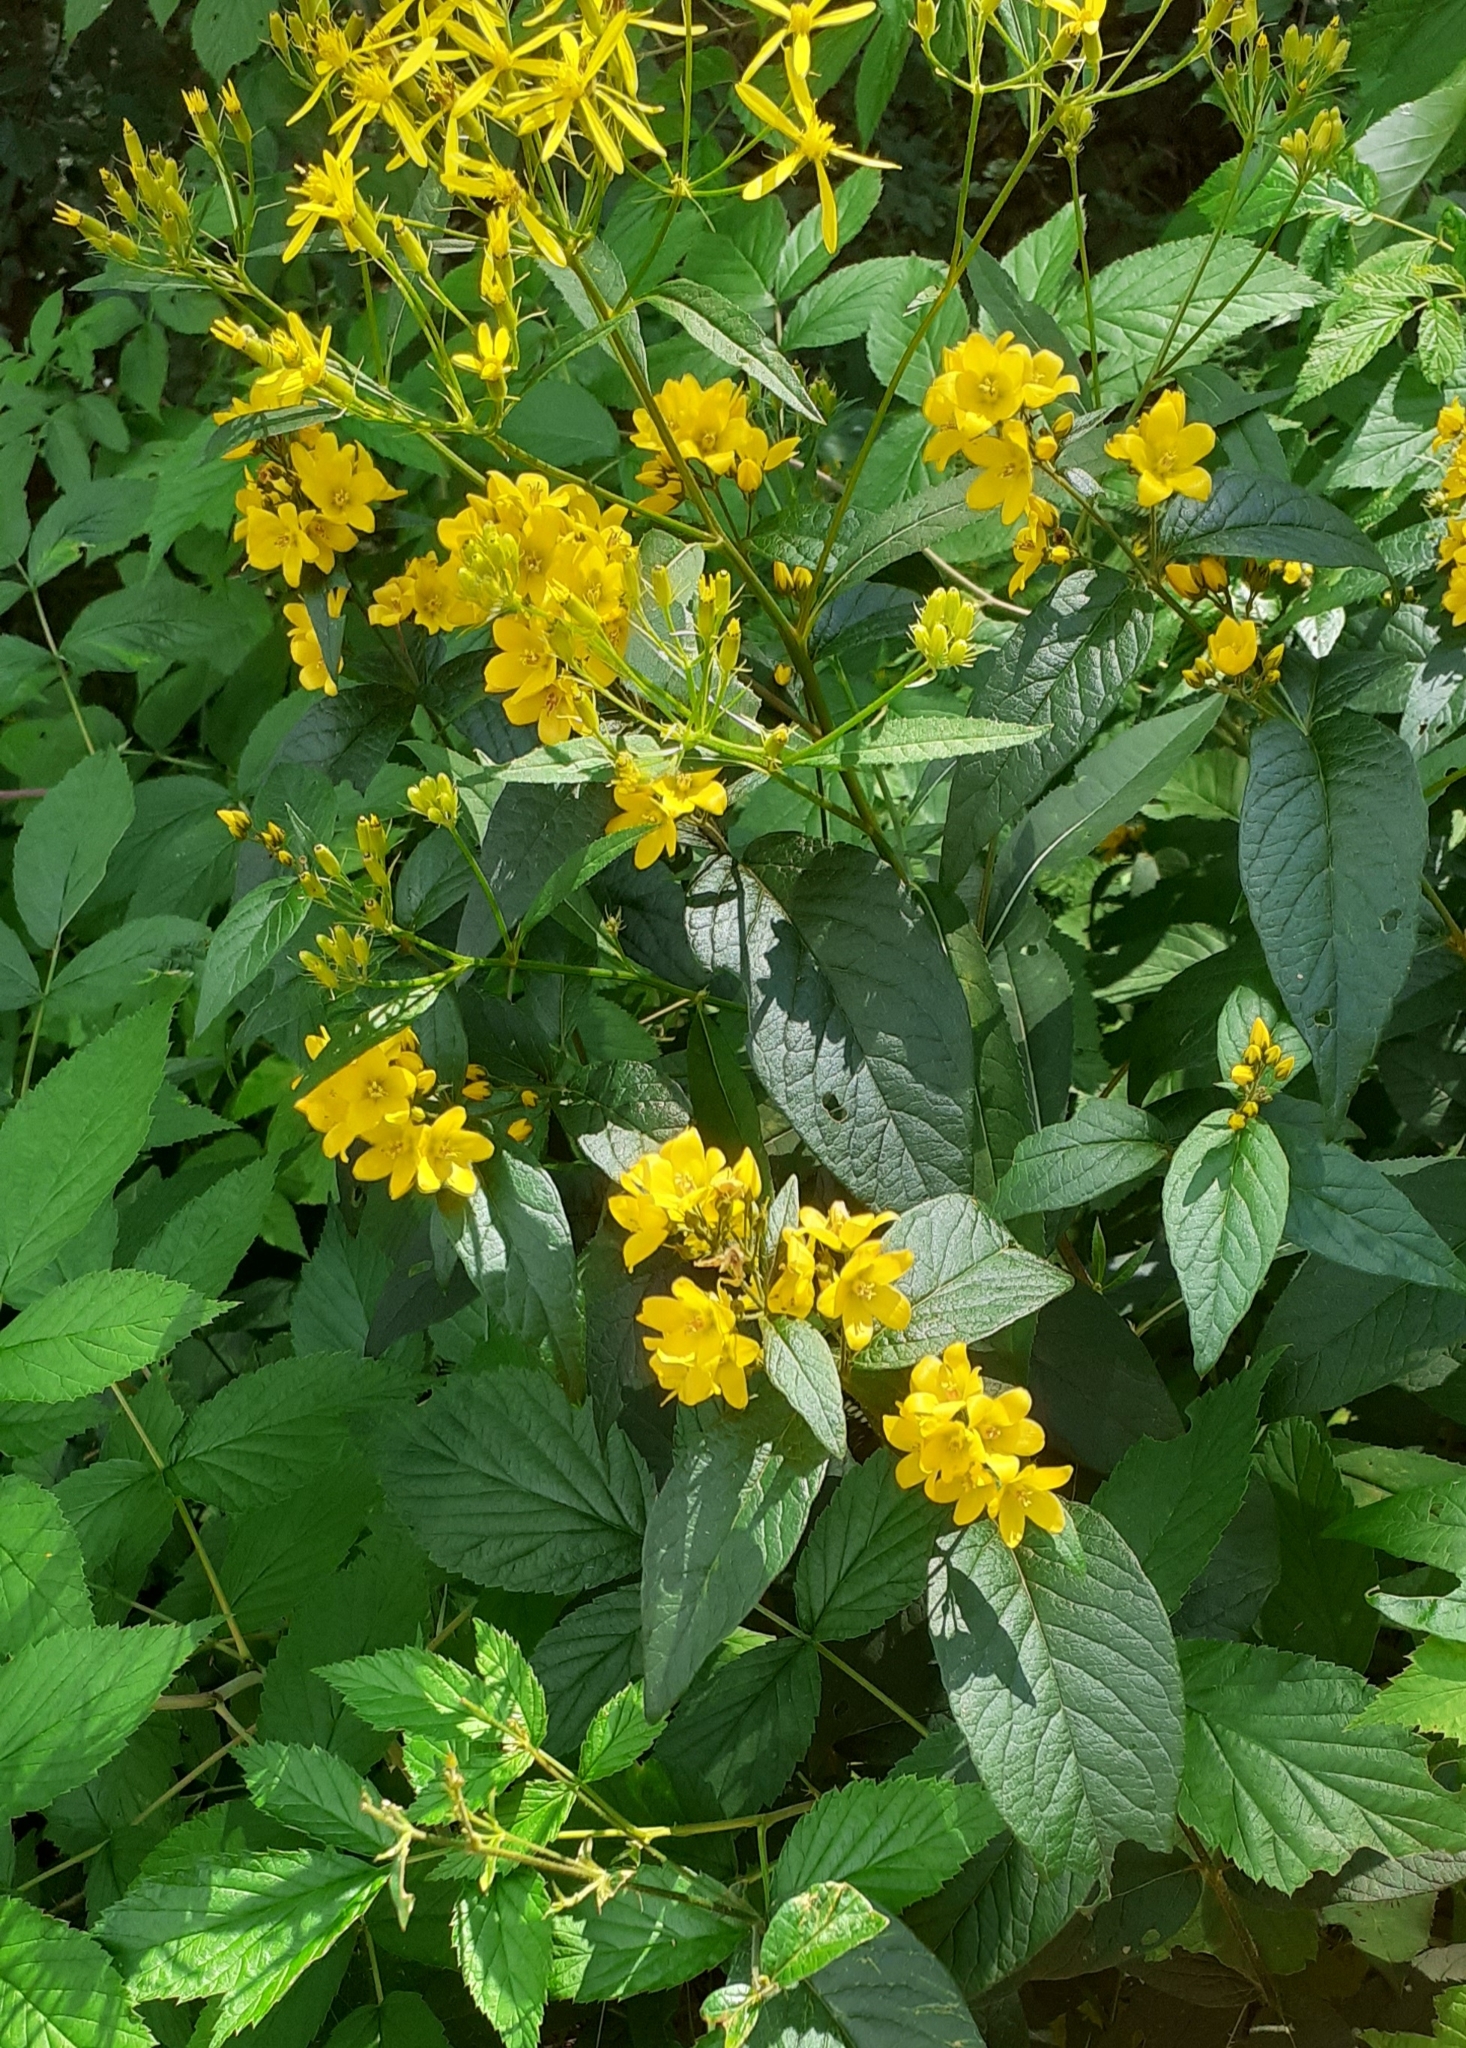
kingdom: Plantae
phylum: Tracheophyta
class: Magnoliopsida
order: Ericales
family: Primulaceae
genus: Lysimachia
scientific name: Lysimachia vulgaris
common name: Yellow loosestrife
